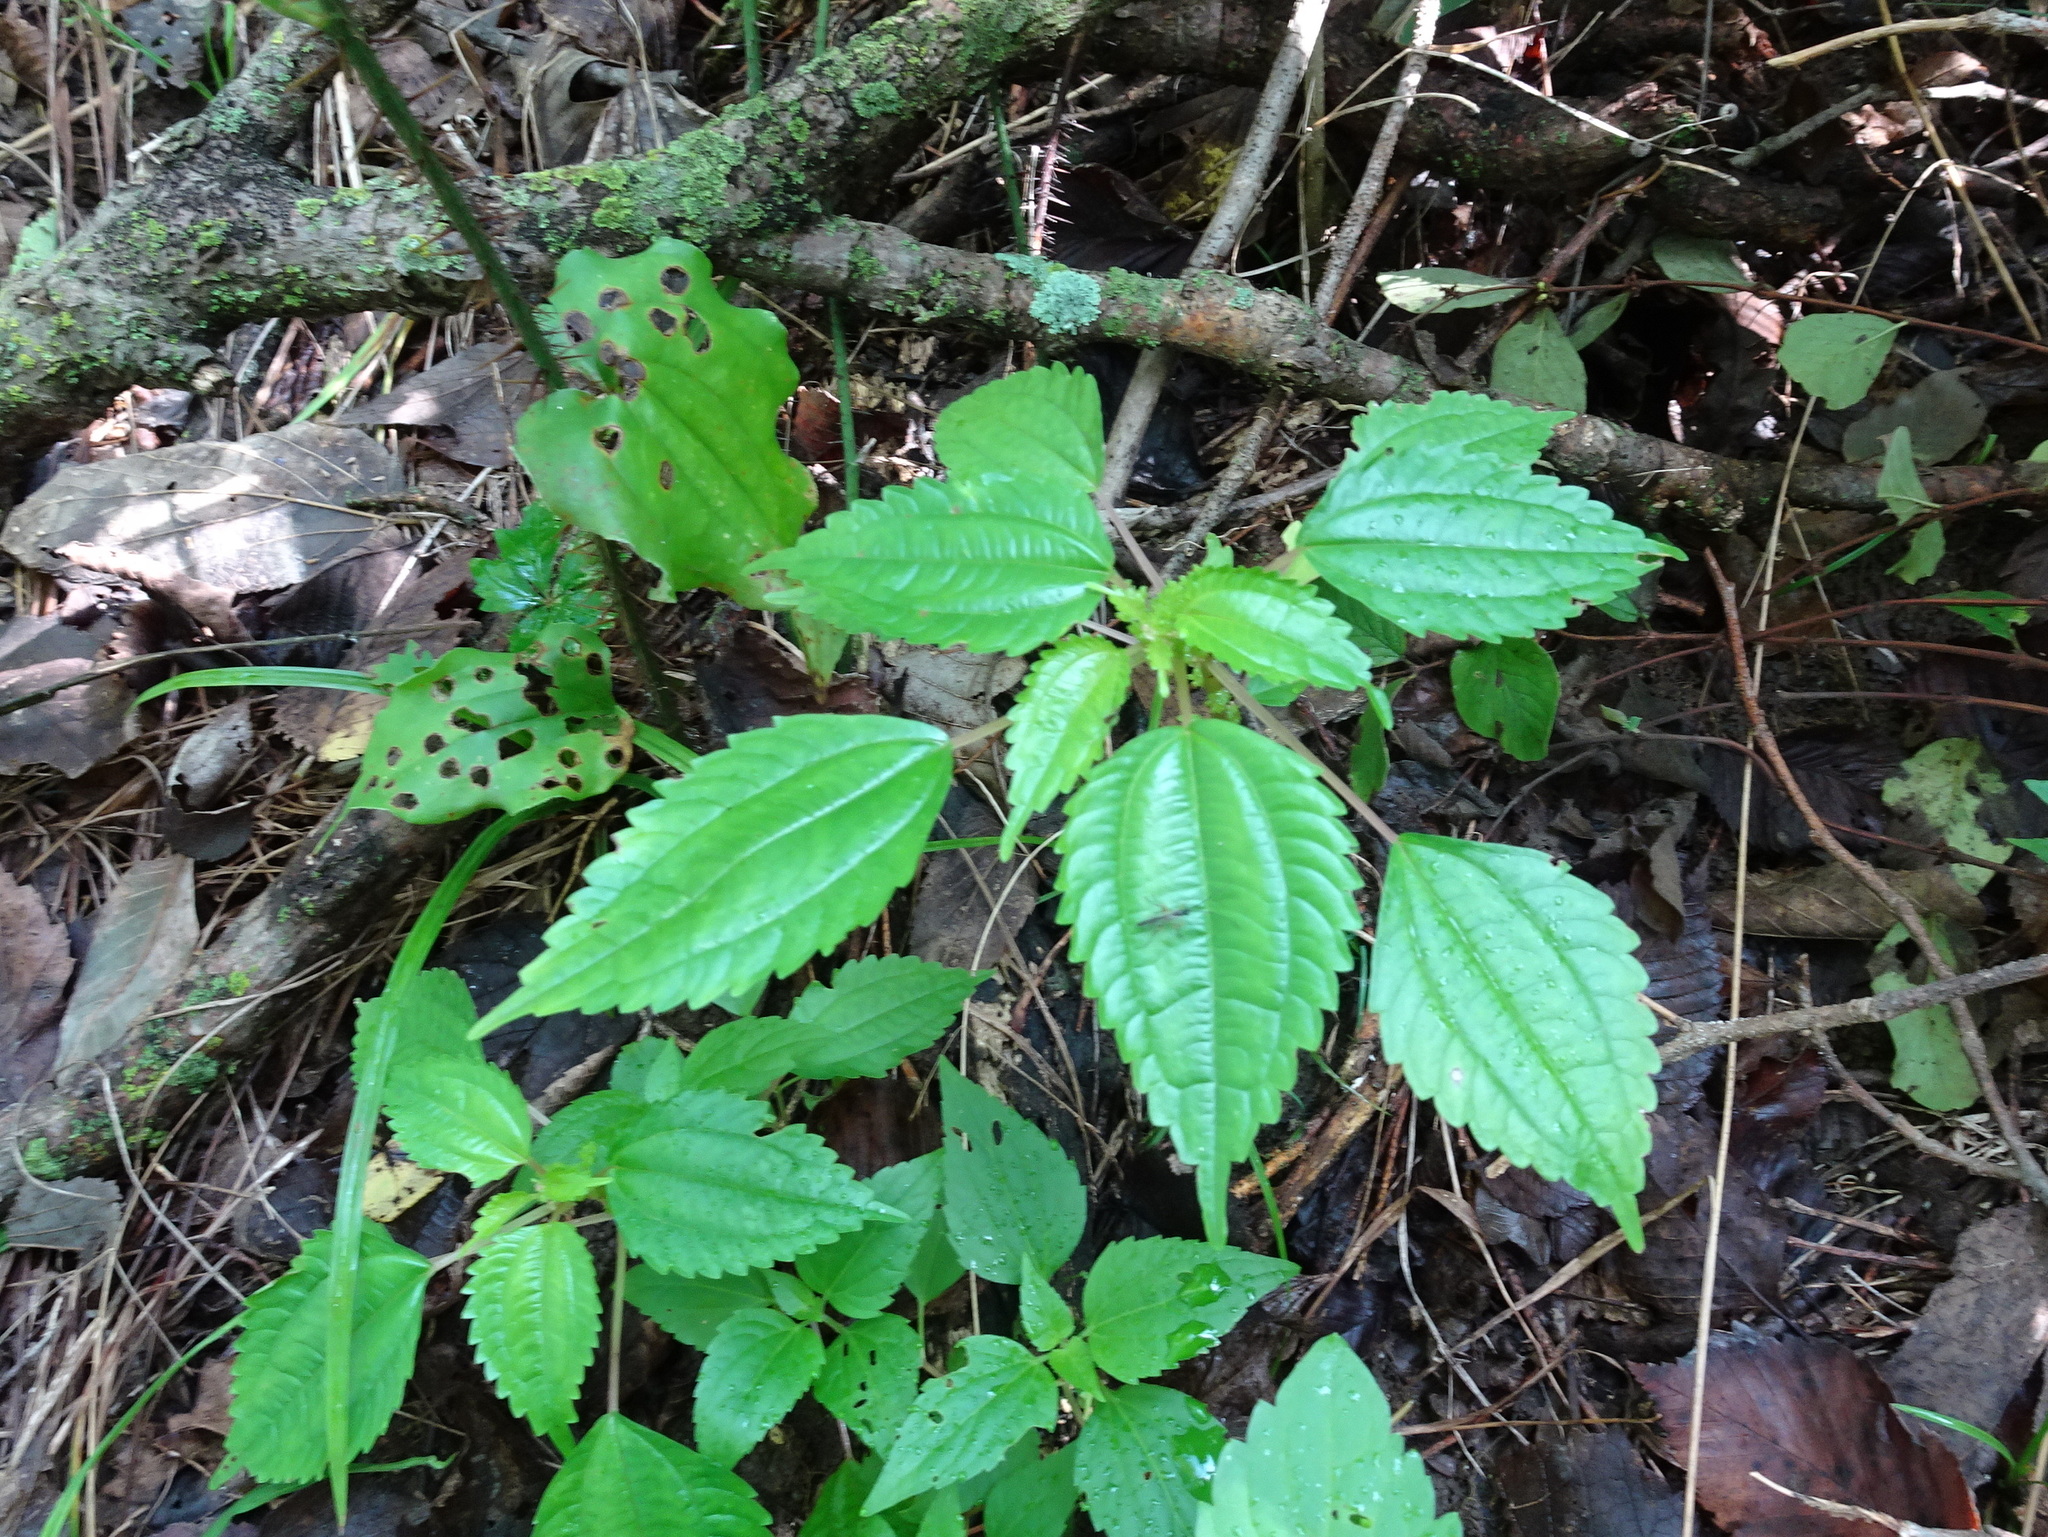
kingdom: Plantae
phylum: Tracheophyta
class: Magnoliopsida
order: Rosales
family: Urticaceae
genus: Pilea
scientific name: Pilea pumila
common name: Clearweed
